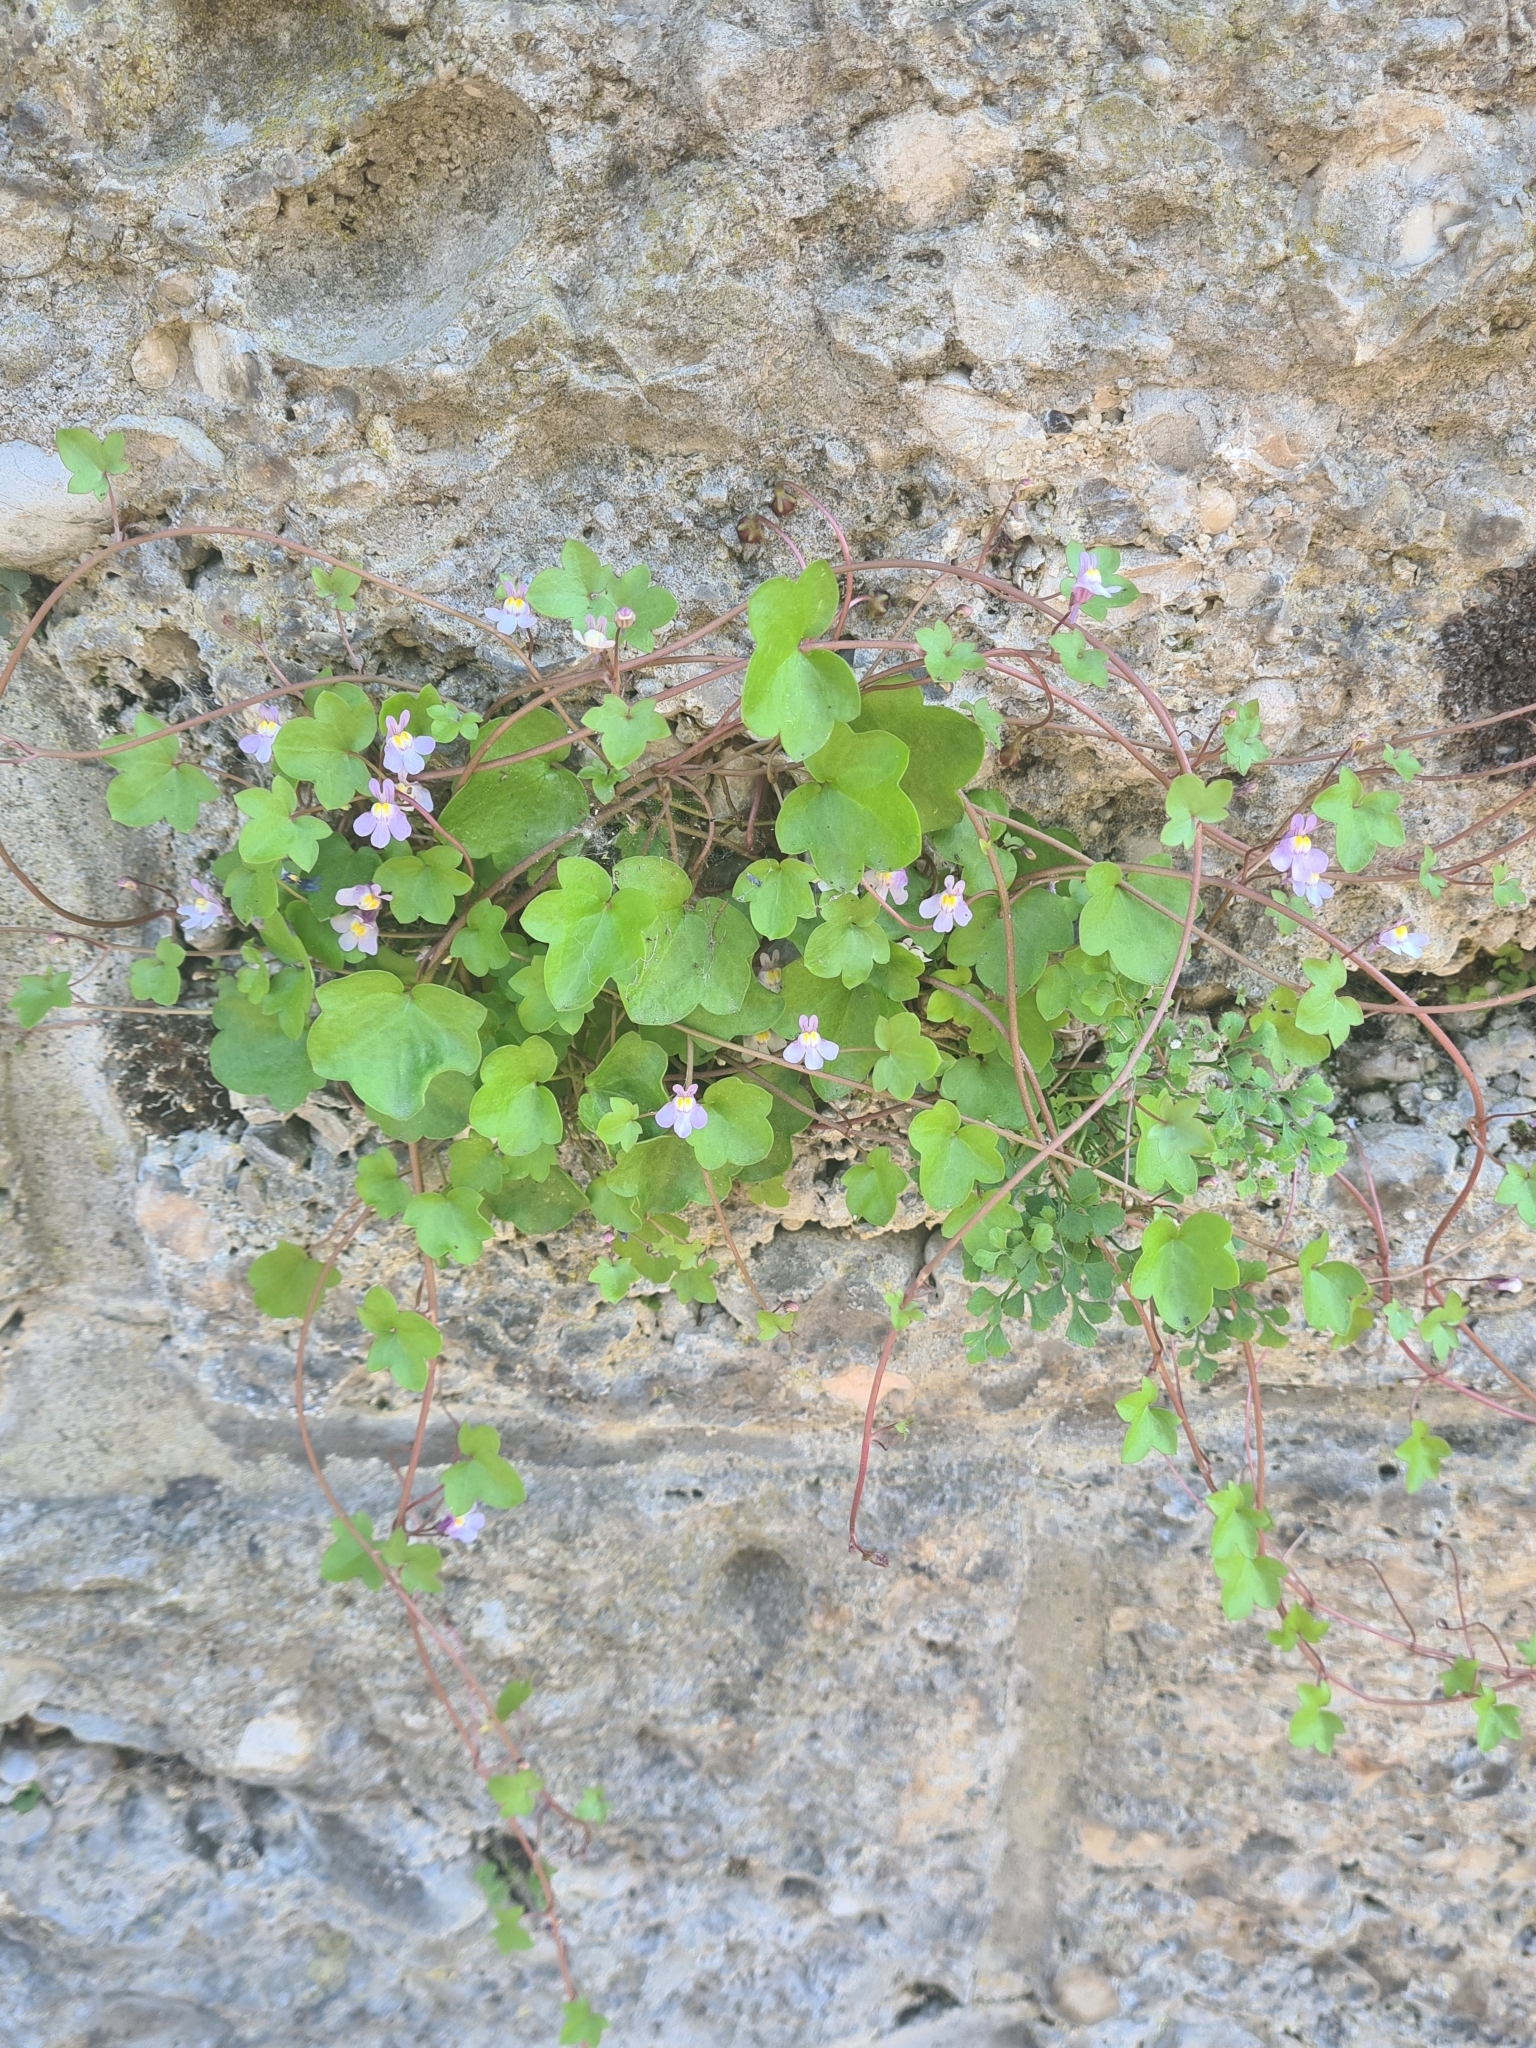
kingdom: Plantae
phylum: Tracheophyta
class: Magnoliopsida
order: Lamiales
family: Plantaginaceae
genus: Cymbalaria
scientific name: Cymbalaria muralis
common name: Ivy-leaved toadflax
